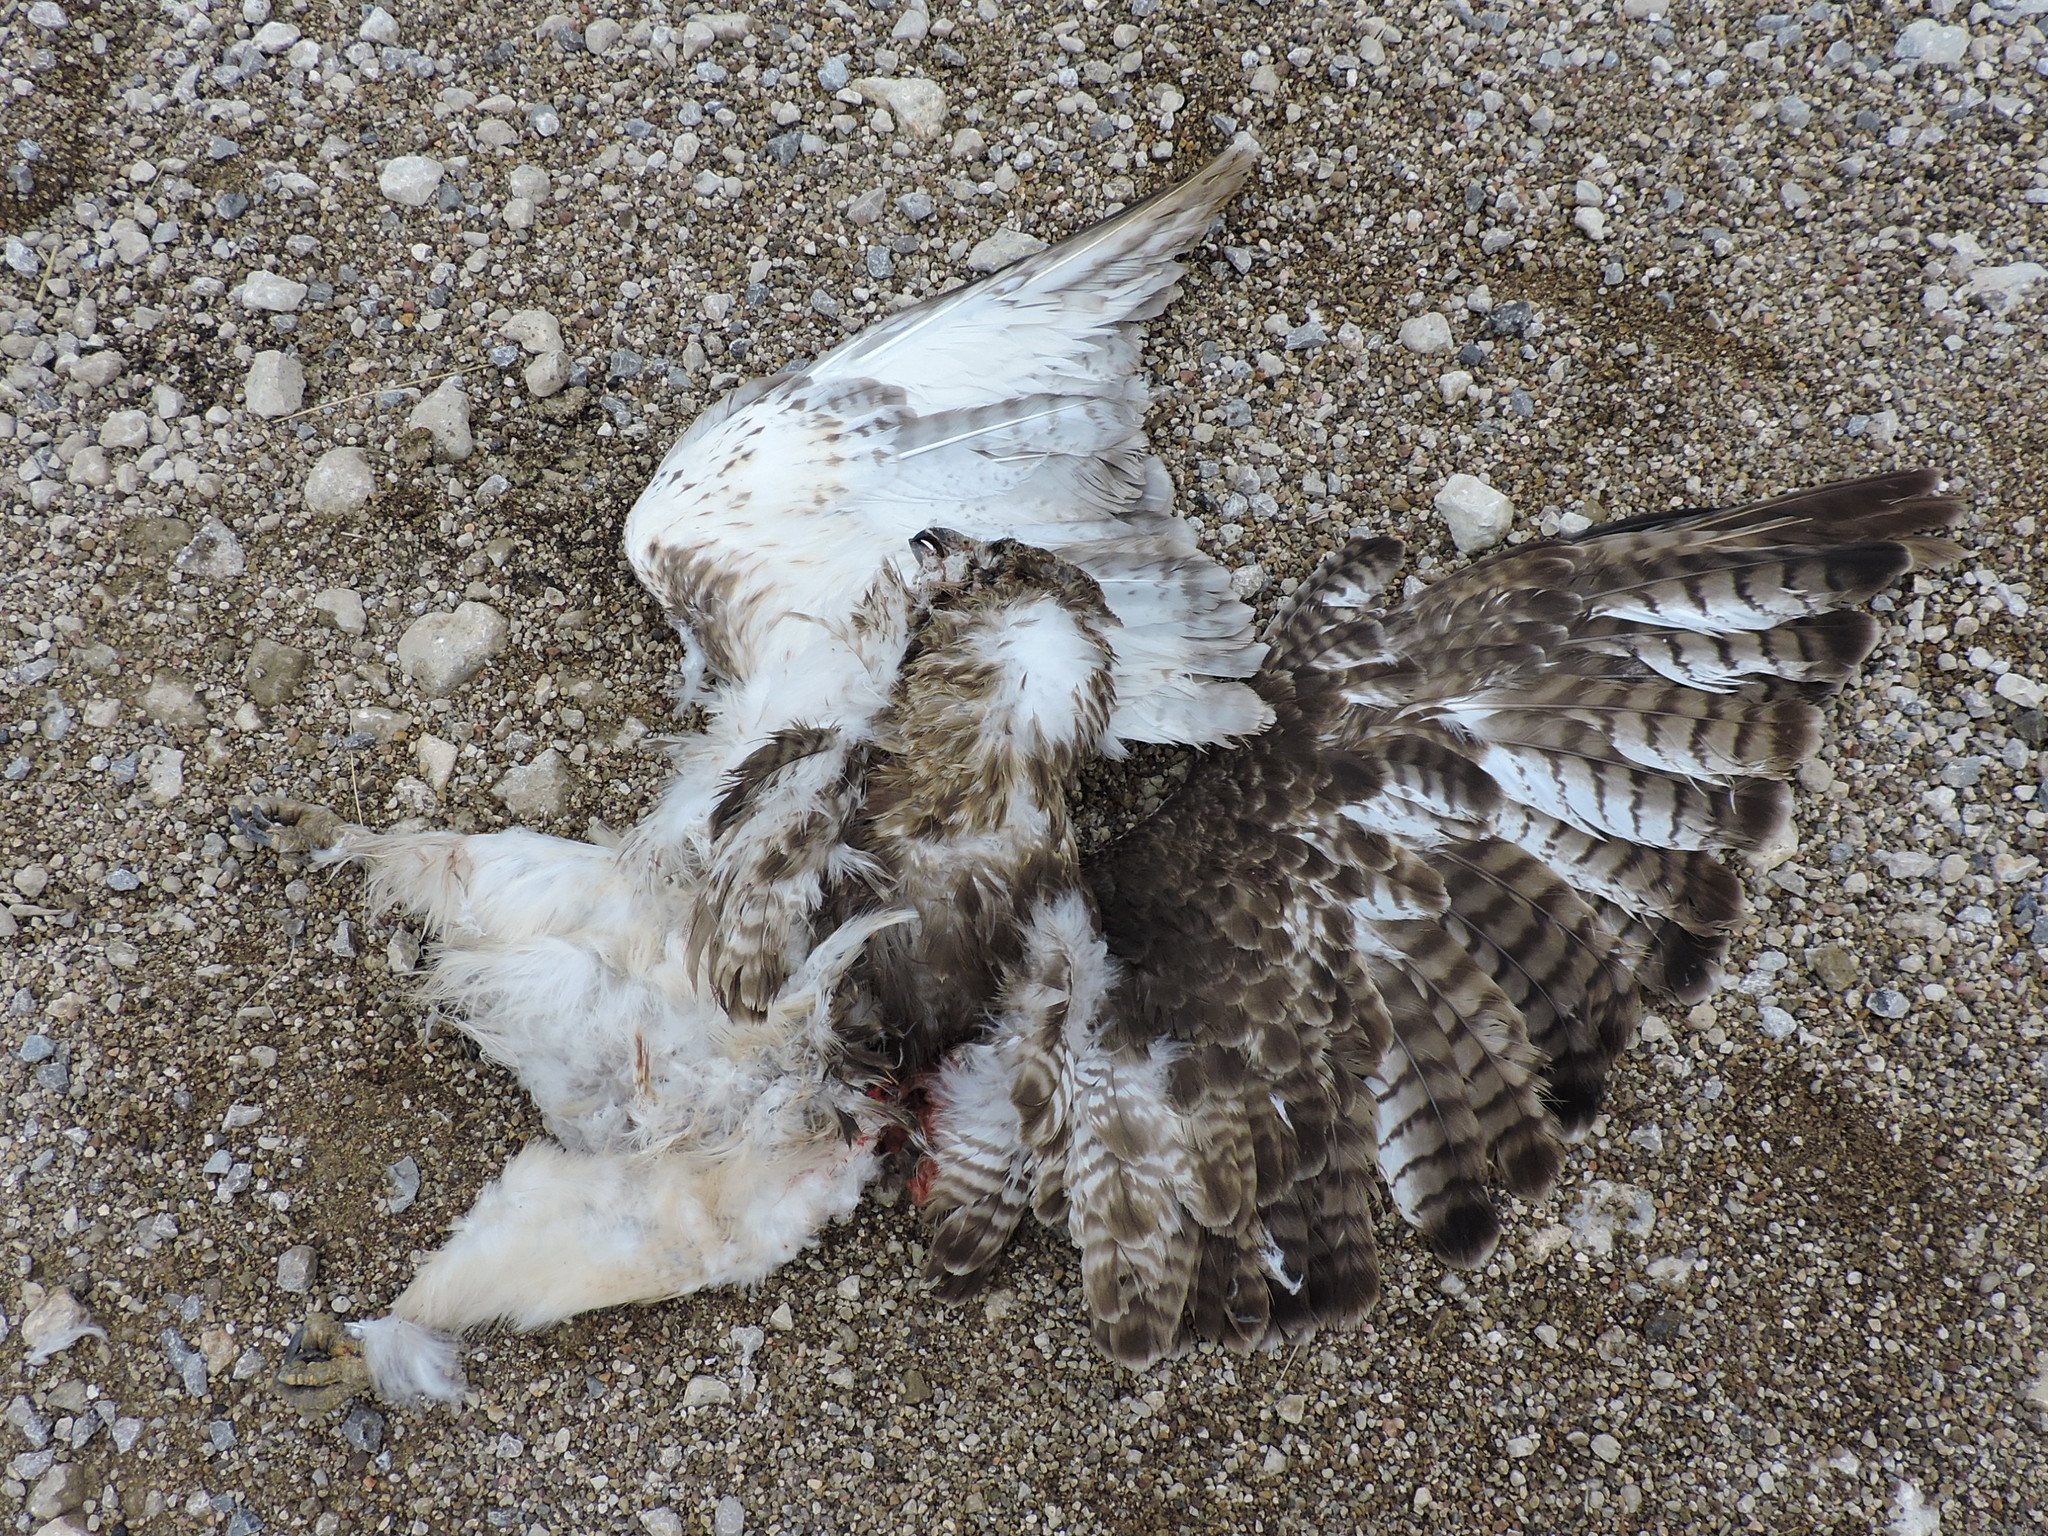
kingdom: Animalia
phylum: Chordata
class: Aves
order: Accipitriformes
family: Accipitridae
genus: Buteo
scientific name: Buteo jamaicensis
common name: Red-tailed hawk
